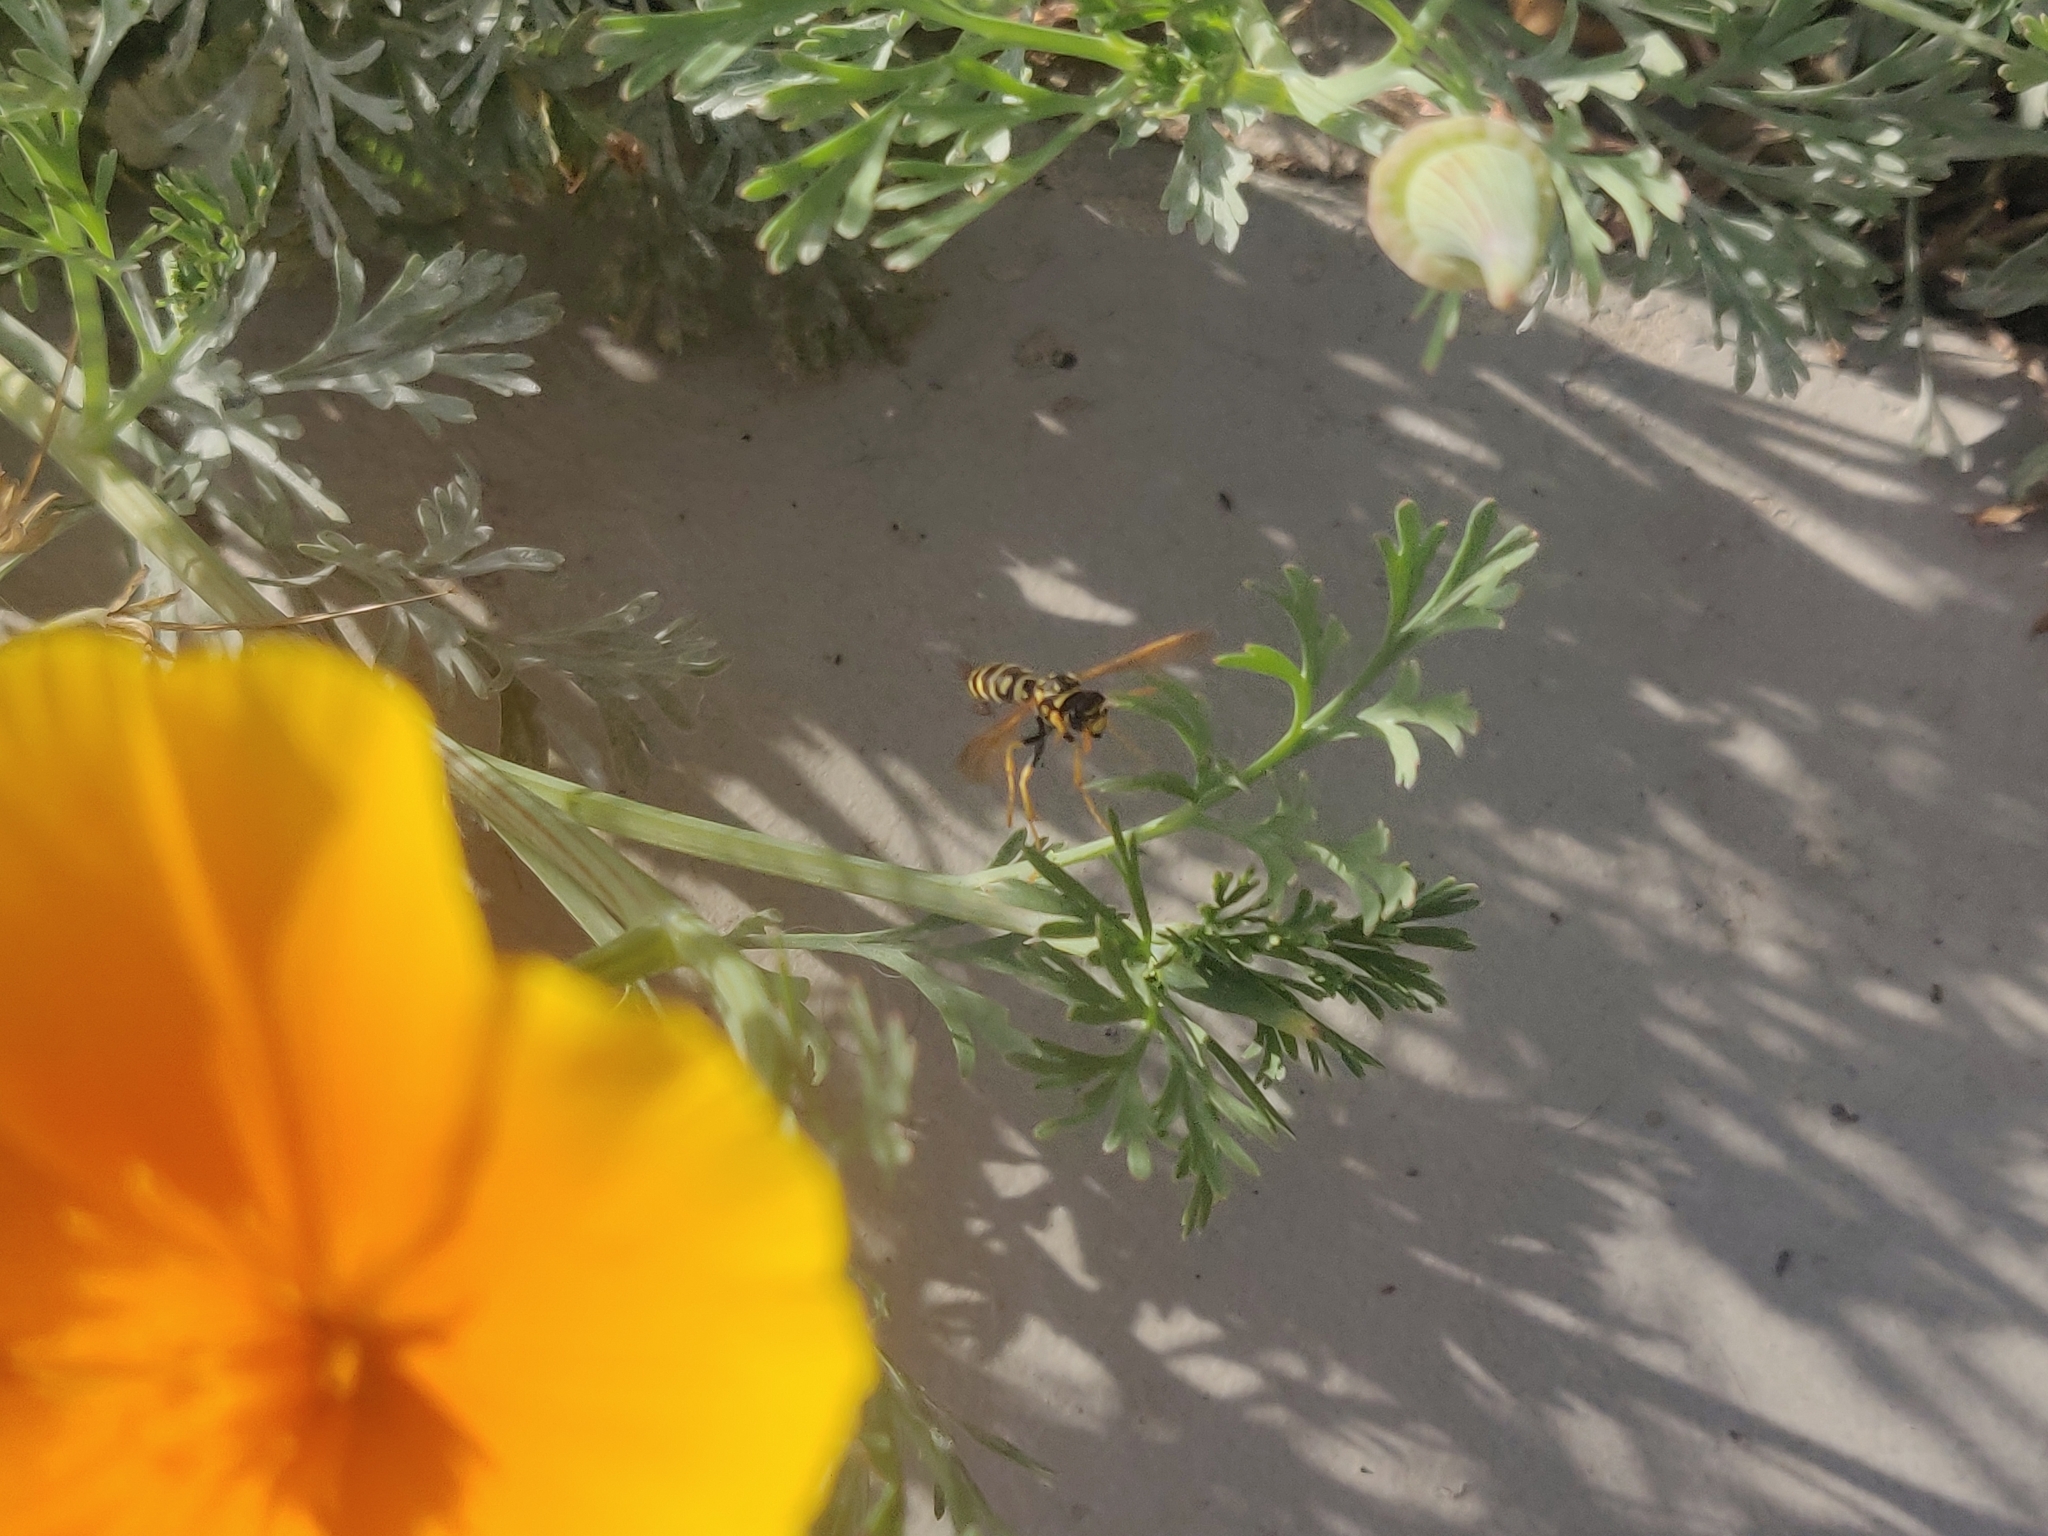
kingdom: Animalia
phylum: Arthropoda
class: Insecta
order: Hymenoptera
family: Eumenidae
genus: Polistes
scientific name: Polistes dominula
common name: Paper wasp
